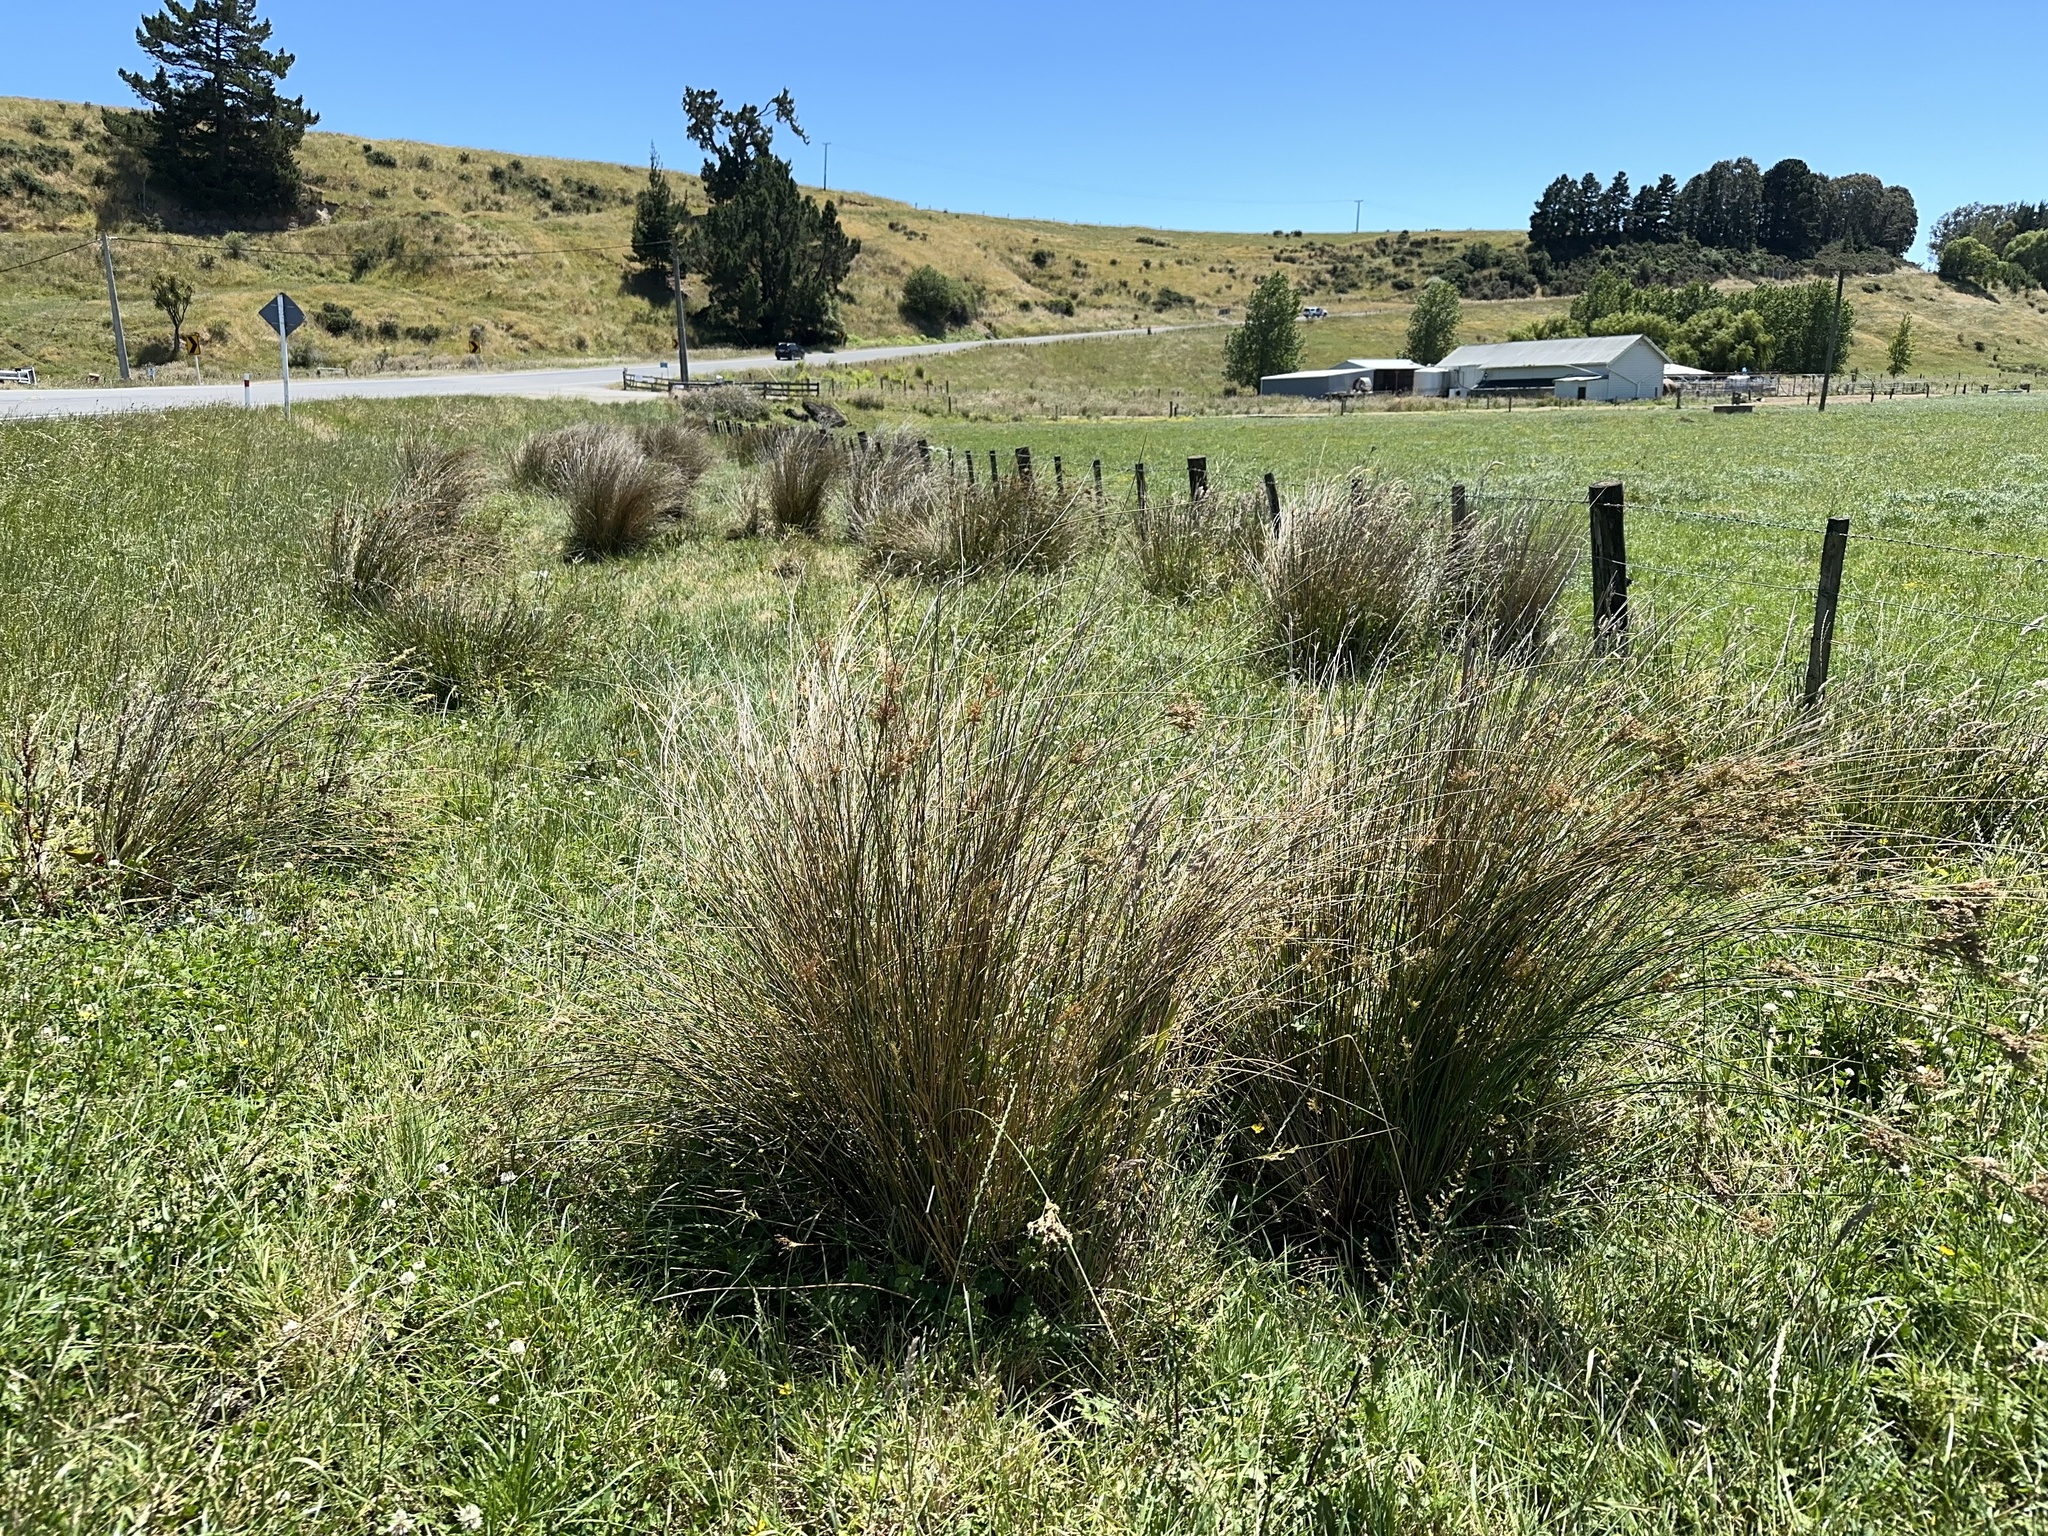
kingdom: Plantae
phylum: Tracheophyta
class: Liliopsida
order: Poales
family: Juncaceae
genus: Juncus
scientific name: Juncus sarophorus
